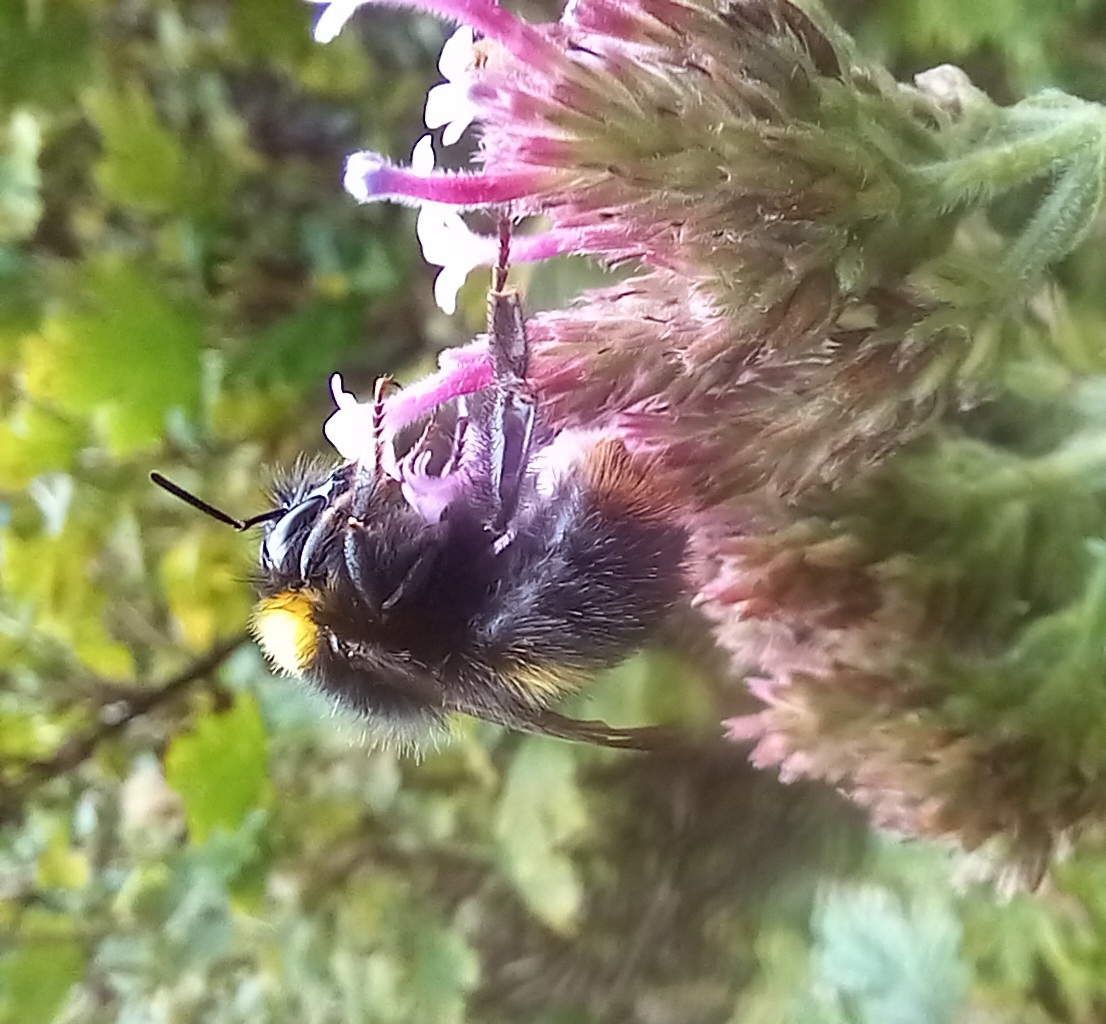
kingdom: Animalia
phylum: Arthropoda
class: Insecta
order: Hymenoptera
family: Apidae
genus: Bombus
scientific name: Bombus pratorum
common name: Early humble-bee
